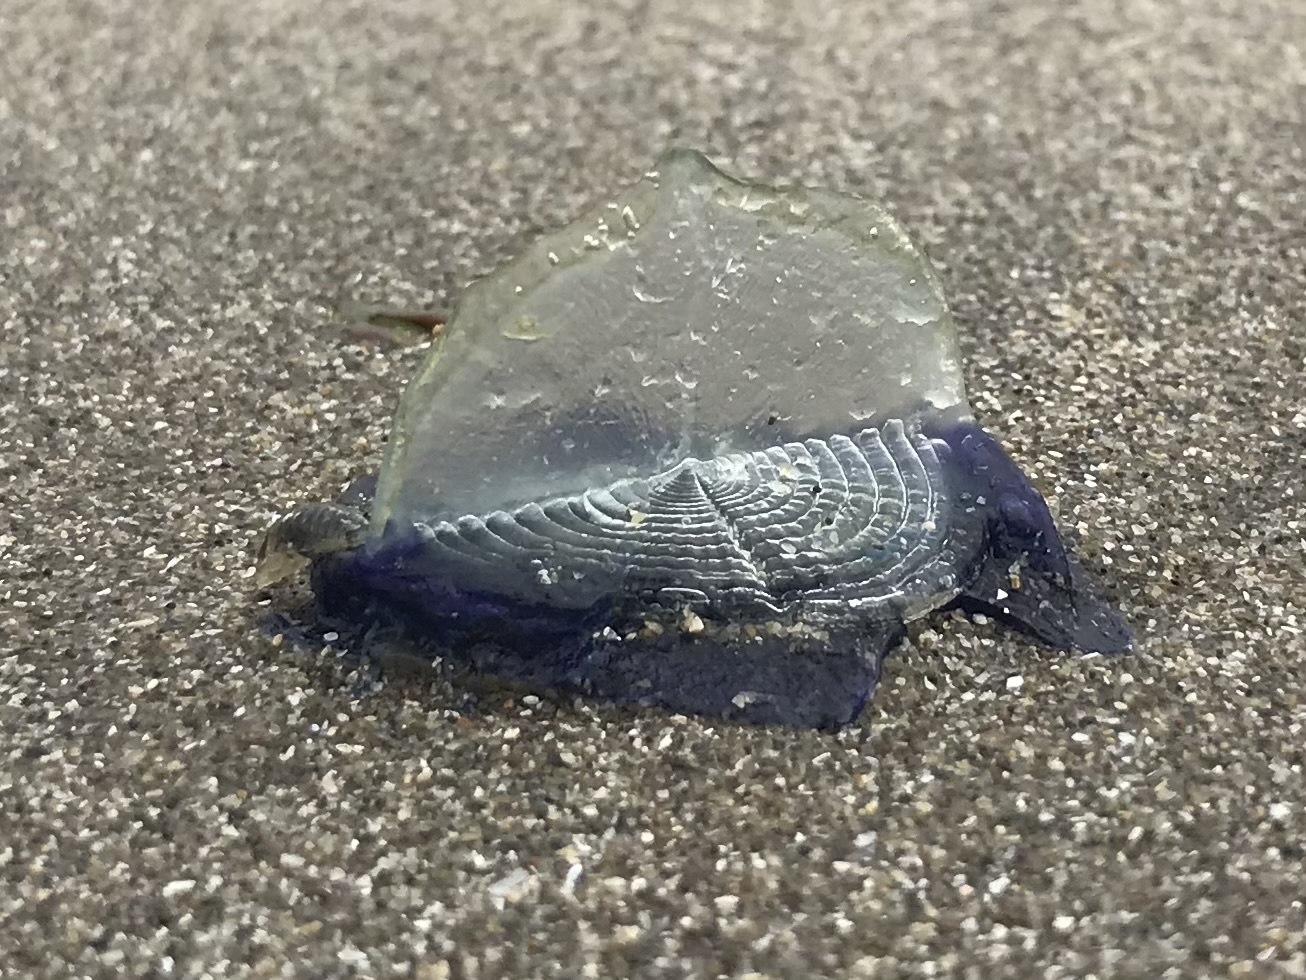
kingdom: Animalia
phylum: Cnidaria
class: Hydrozoa
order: Anthoathecata
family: Porpitidae
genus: Velella
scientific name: Velella velella
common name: By-the-wind-sailor
